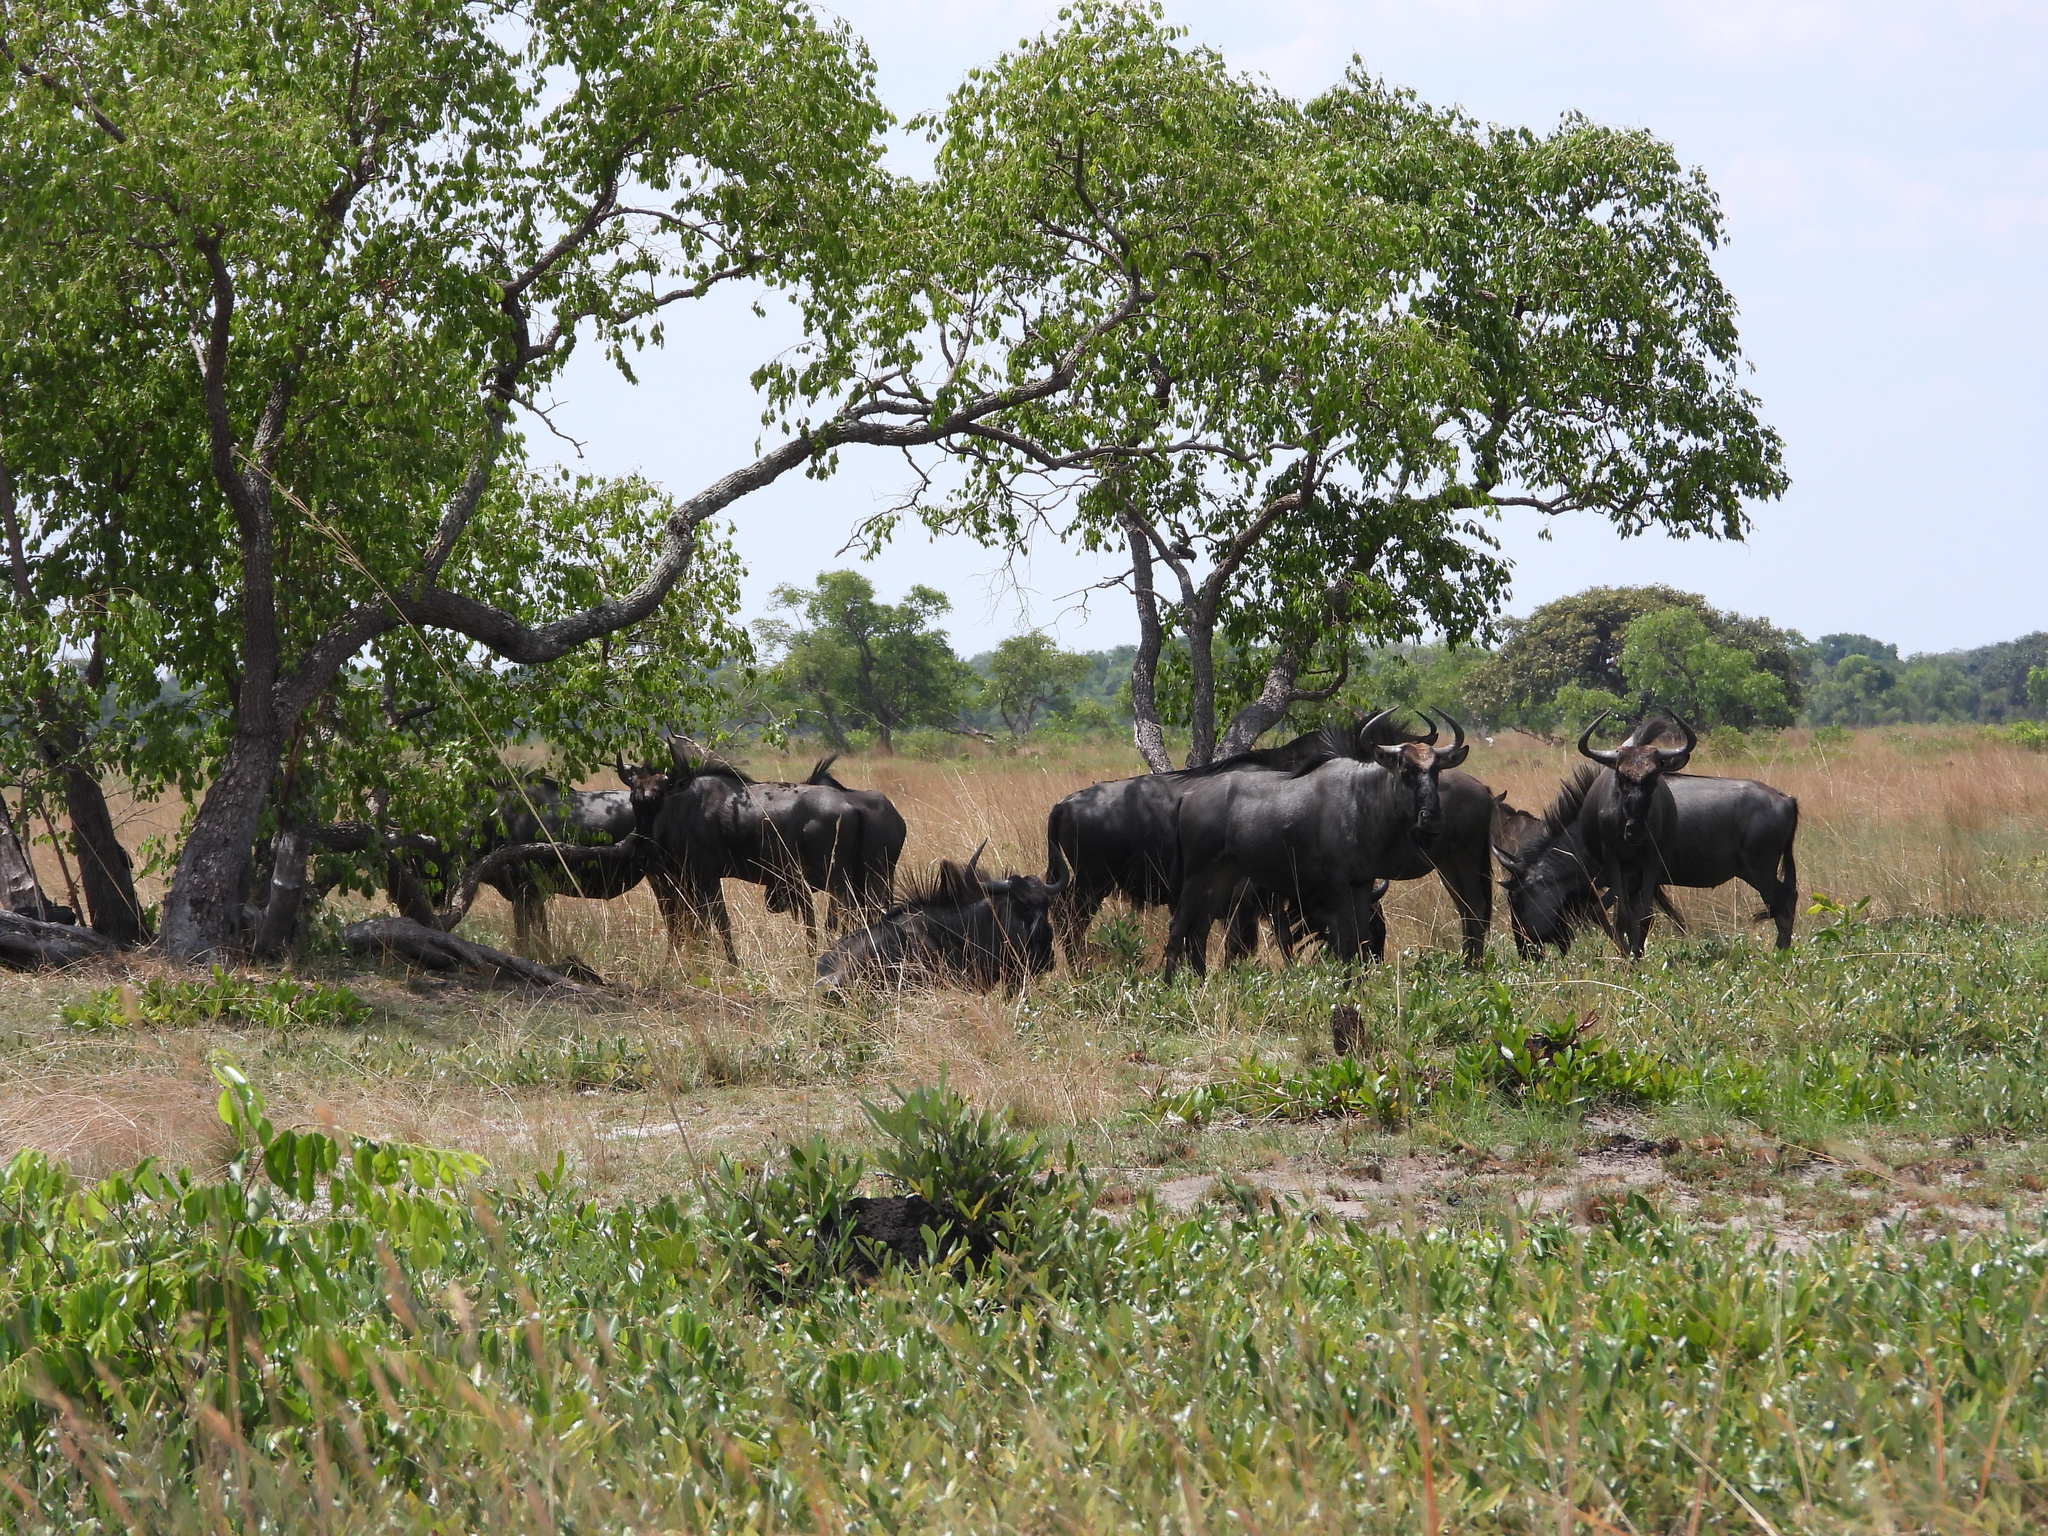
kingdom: Animalia
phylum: Chordata
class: Mammalia
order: Artiodactyla
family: Bovidae
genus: Connochaetes
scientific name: Connochaetes taurinus
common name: Blue wildebeest
